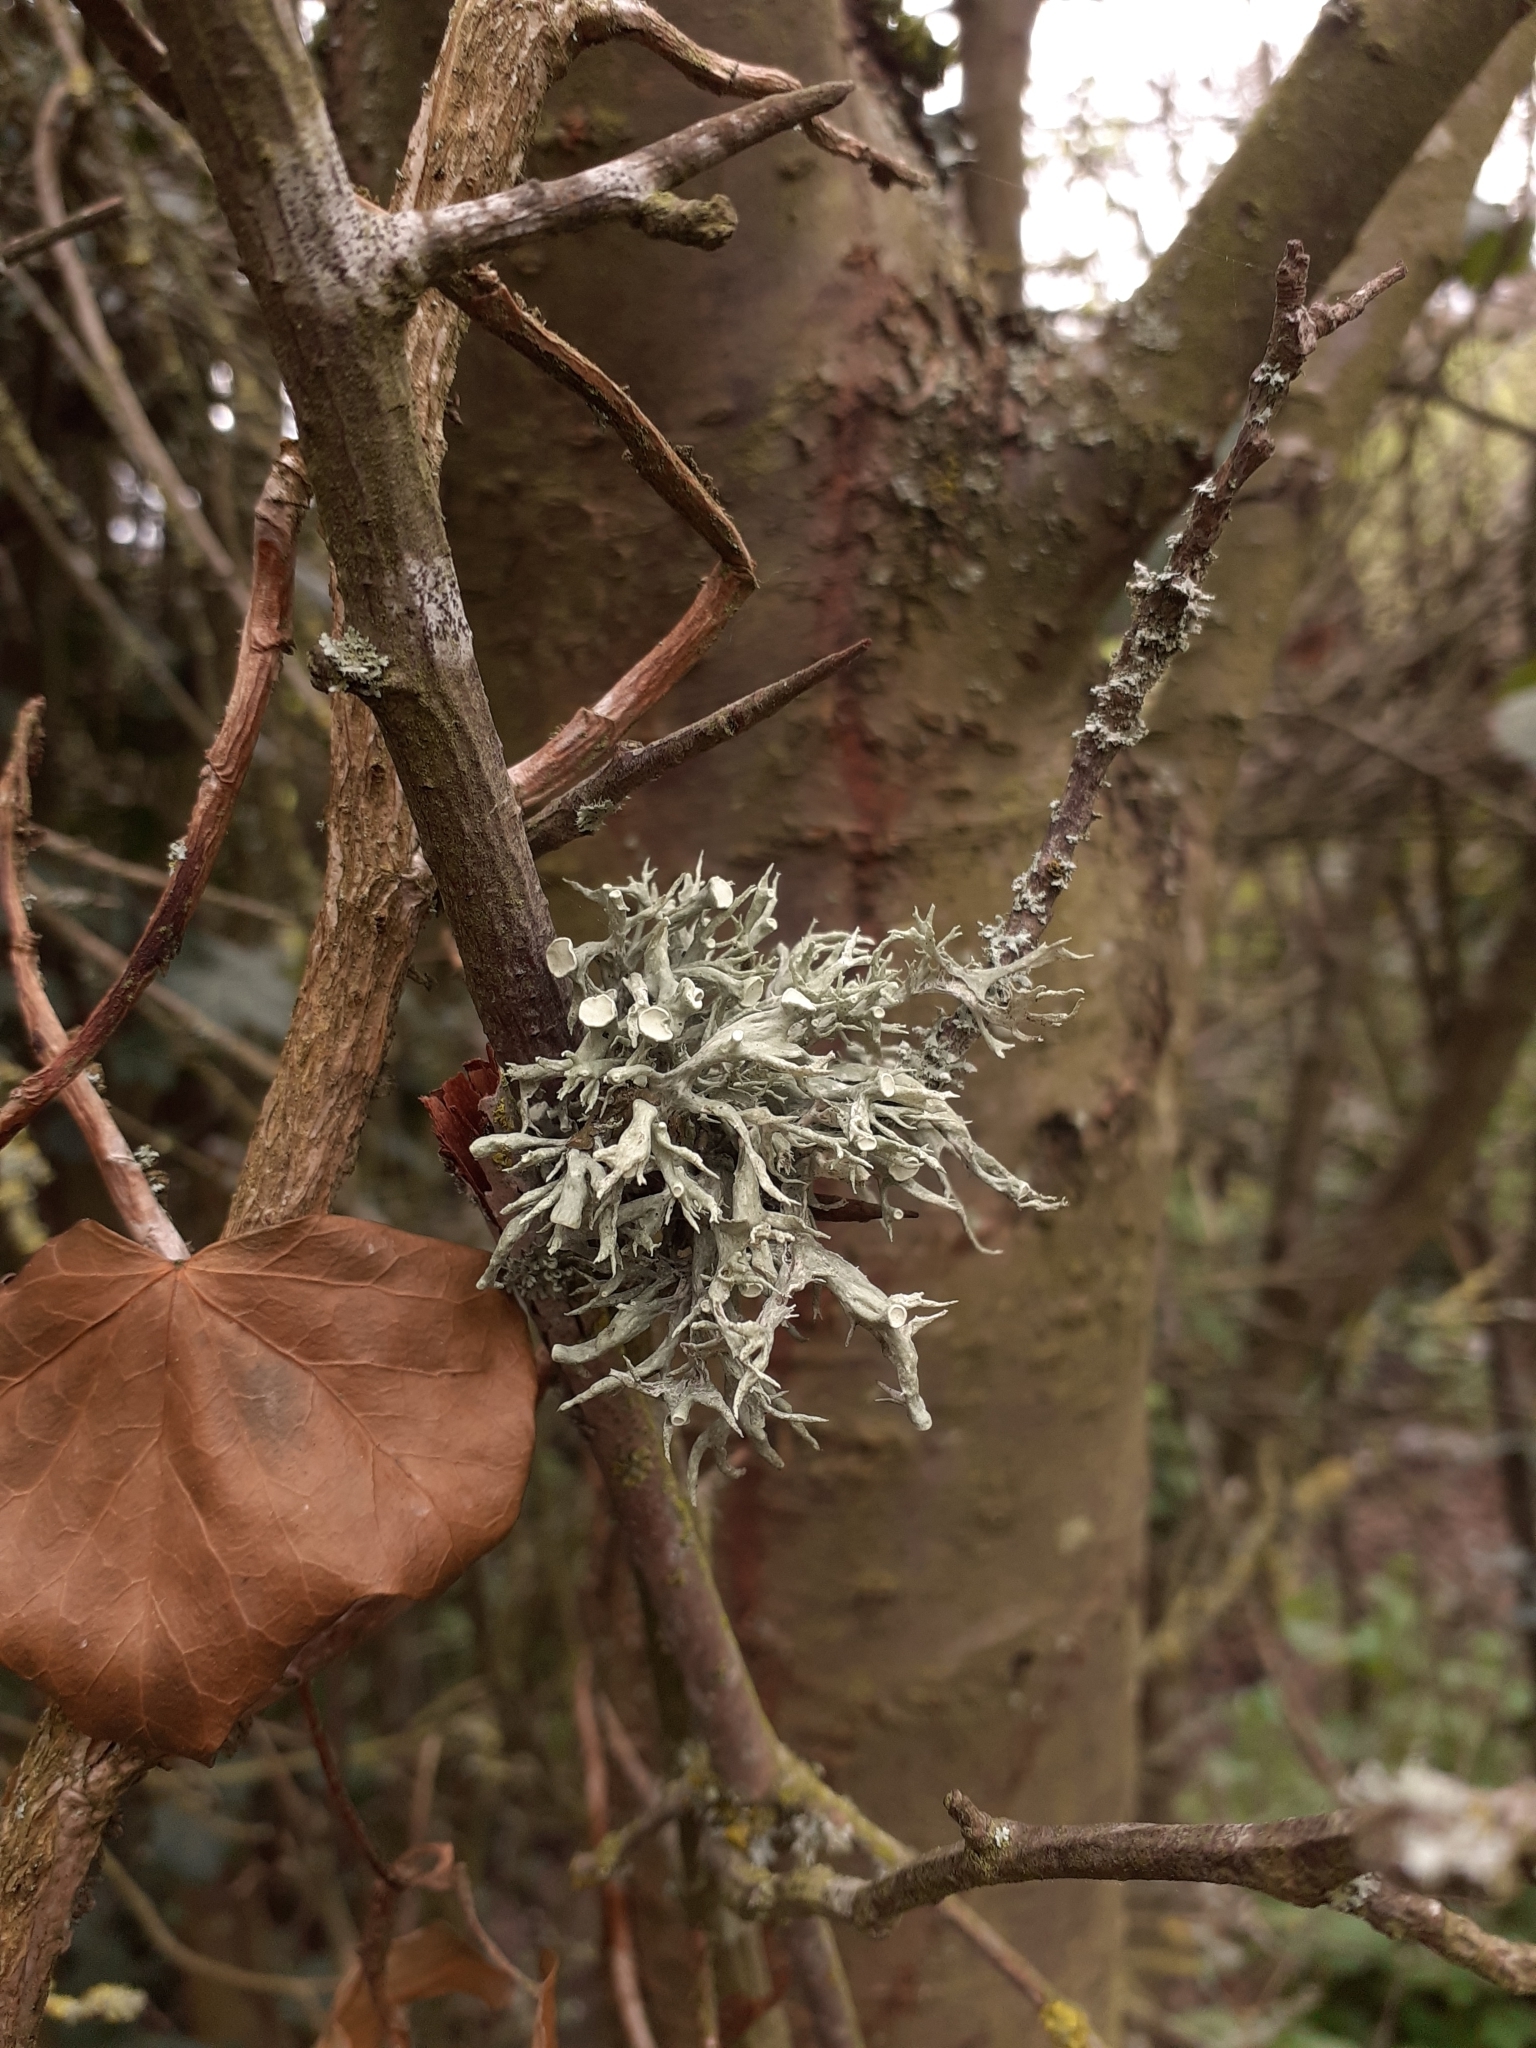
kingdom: Fungi
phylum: Ascomycota
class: Lecanoromycetes
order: Lecanorales
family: Ramalinaceae
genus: Ramalina
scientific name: Ramalina fastigiata
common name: Dotted ribbon lichen
